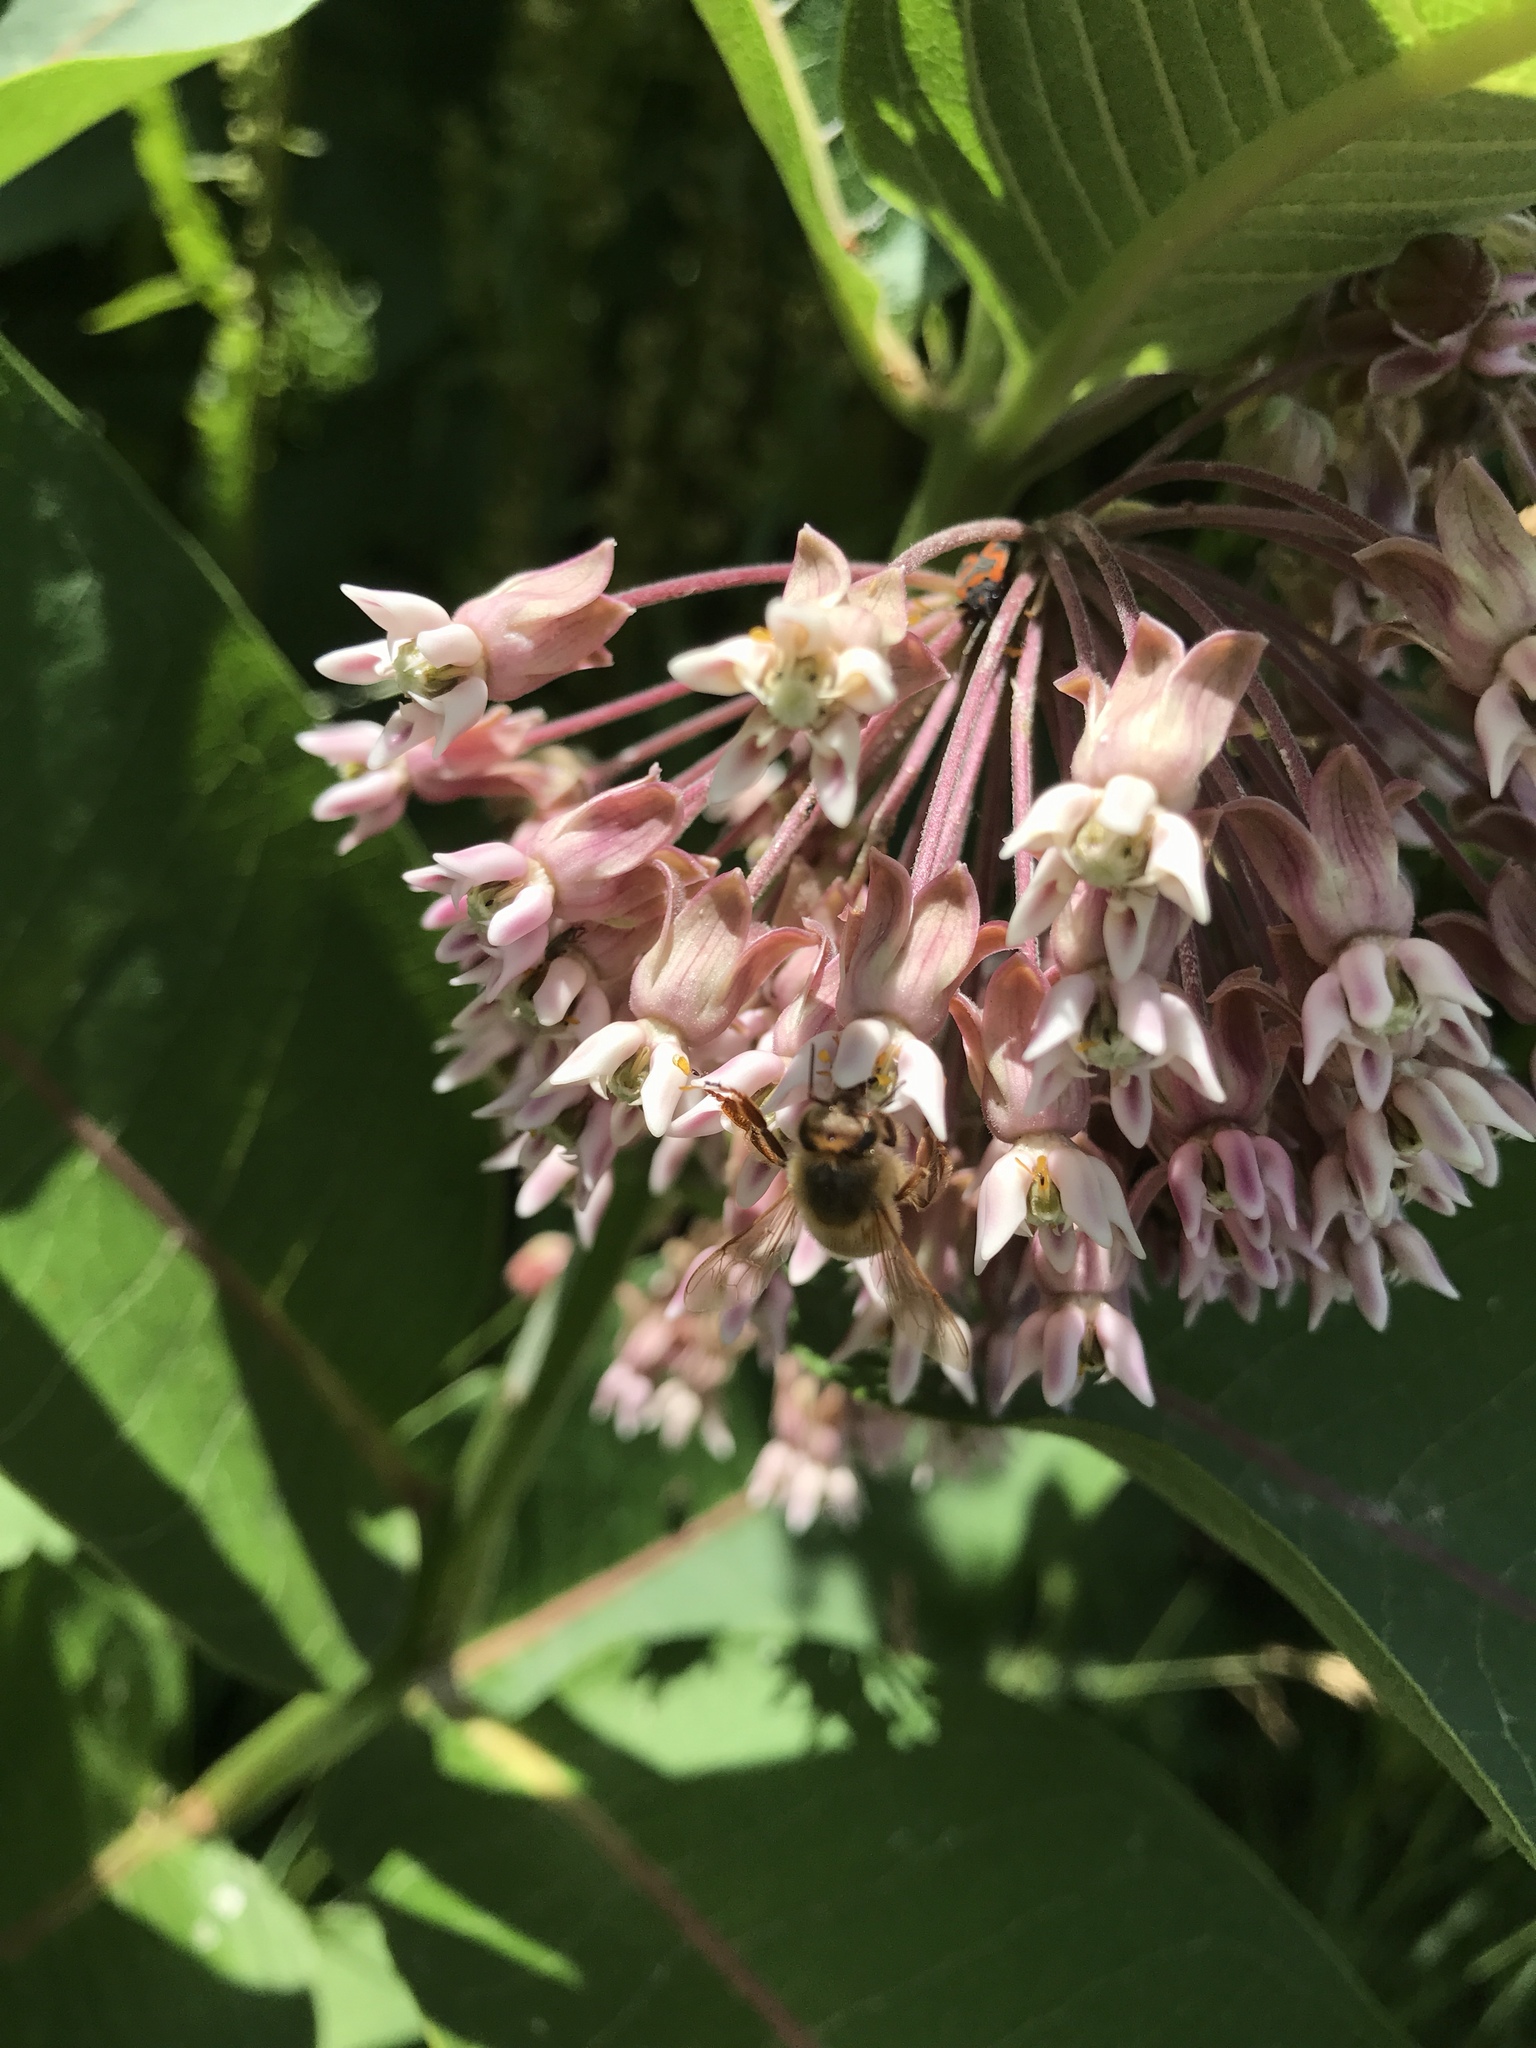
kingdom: Plantae
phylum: Tracheophyta
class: Magnoliopsida
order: Gentianales
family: Apocynaceae
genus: Asclepias
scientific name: Asclepias syriaca
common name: Common milkweed
